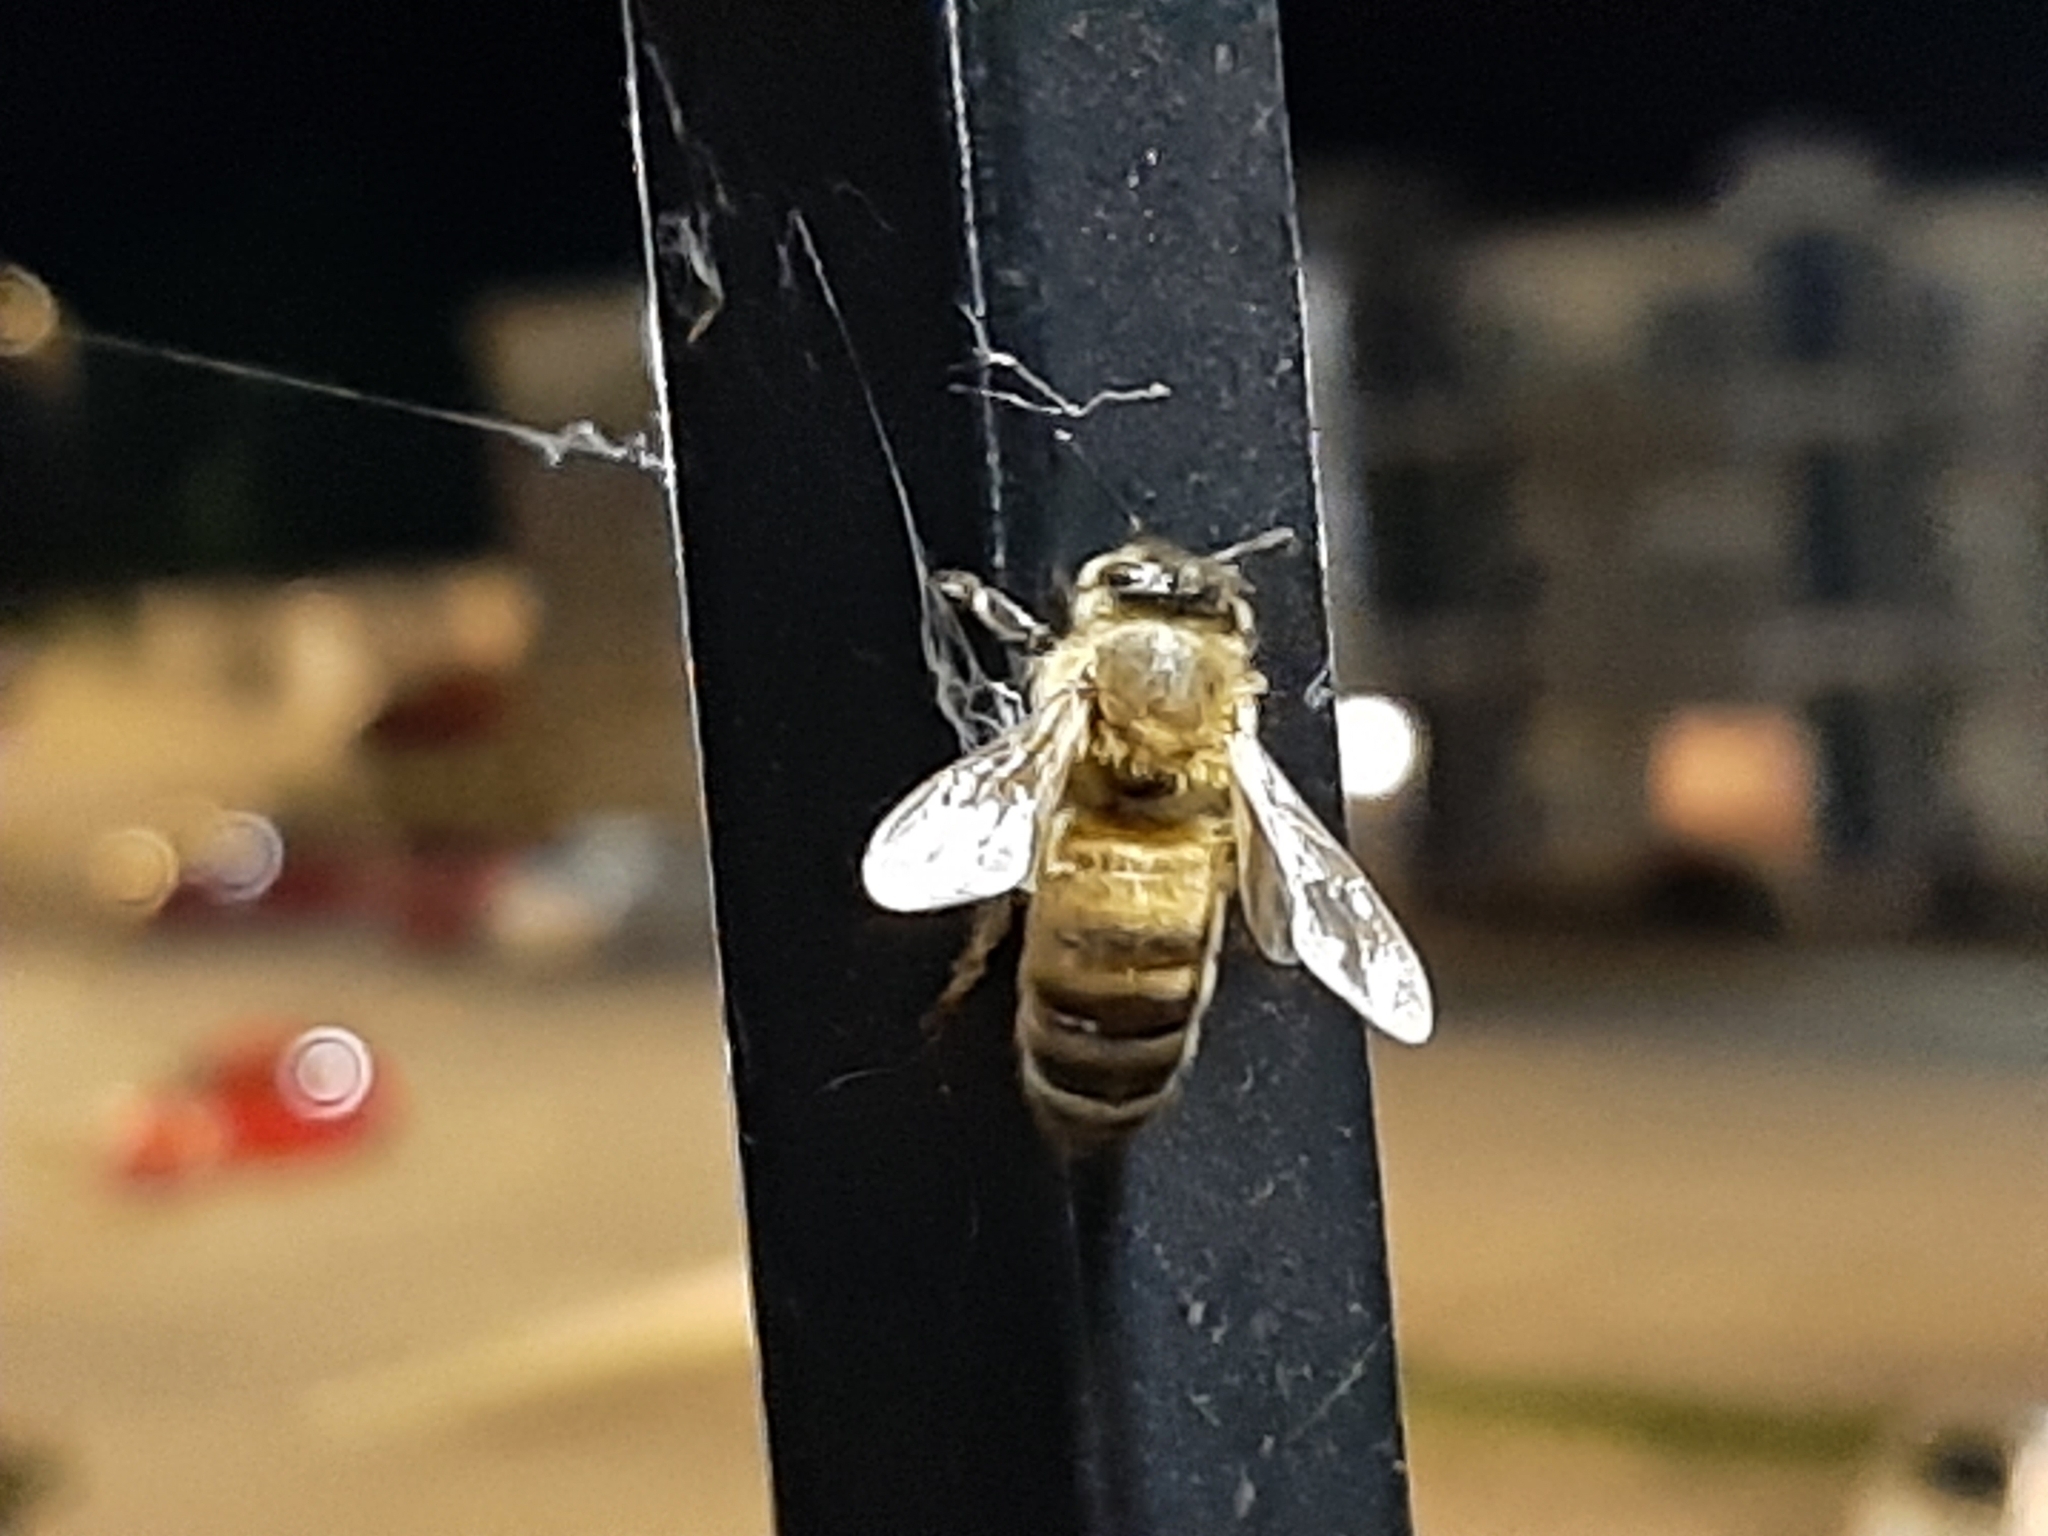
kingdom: Animalia
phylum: Arthropoda
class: Insecta
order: Hymenoptera
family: Apidae
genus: Apis
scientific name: Apis mellifera
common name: Honey bee
